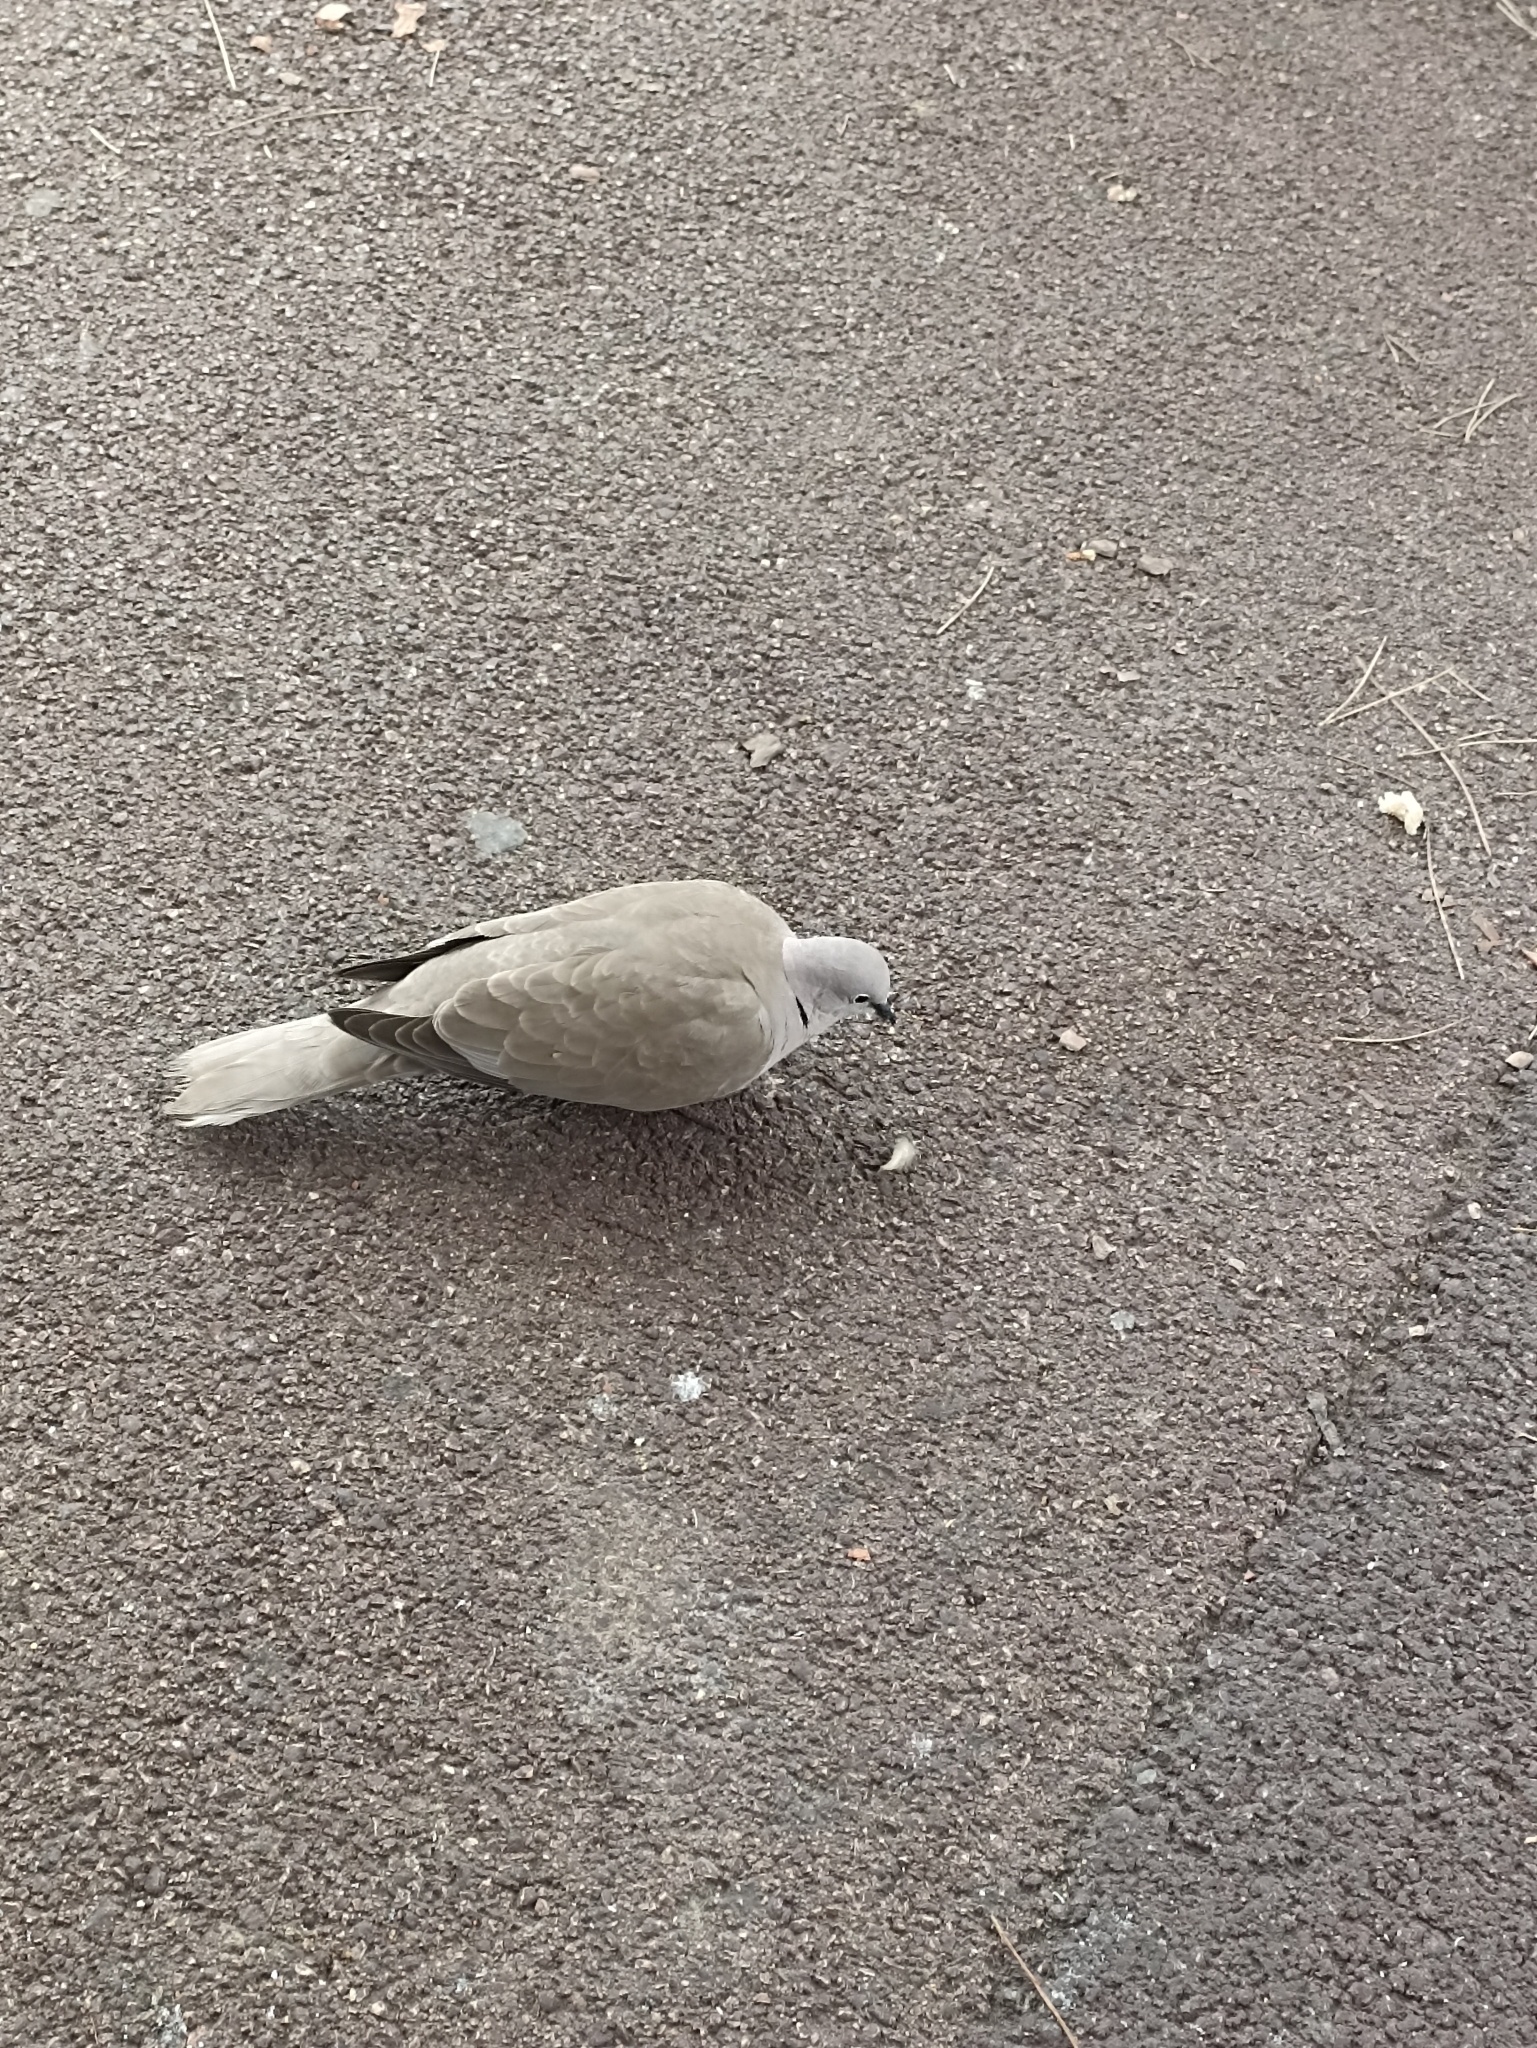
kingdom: Animalia
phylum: Chordata
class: Aves
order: Columbiformes
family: Columbidae
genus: Streptopelia
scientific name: Streptopelia decaocto
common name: Eurasian collared dove
